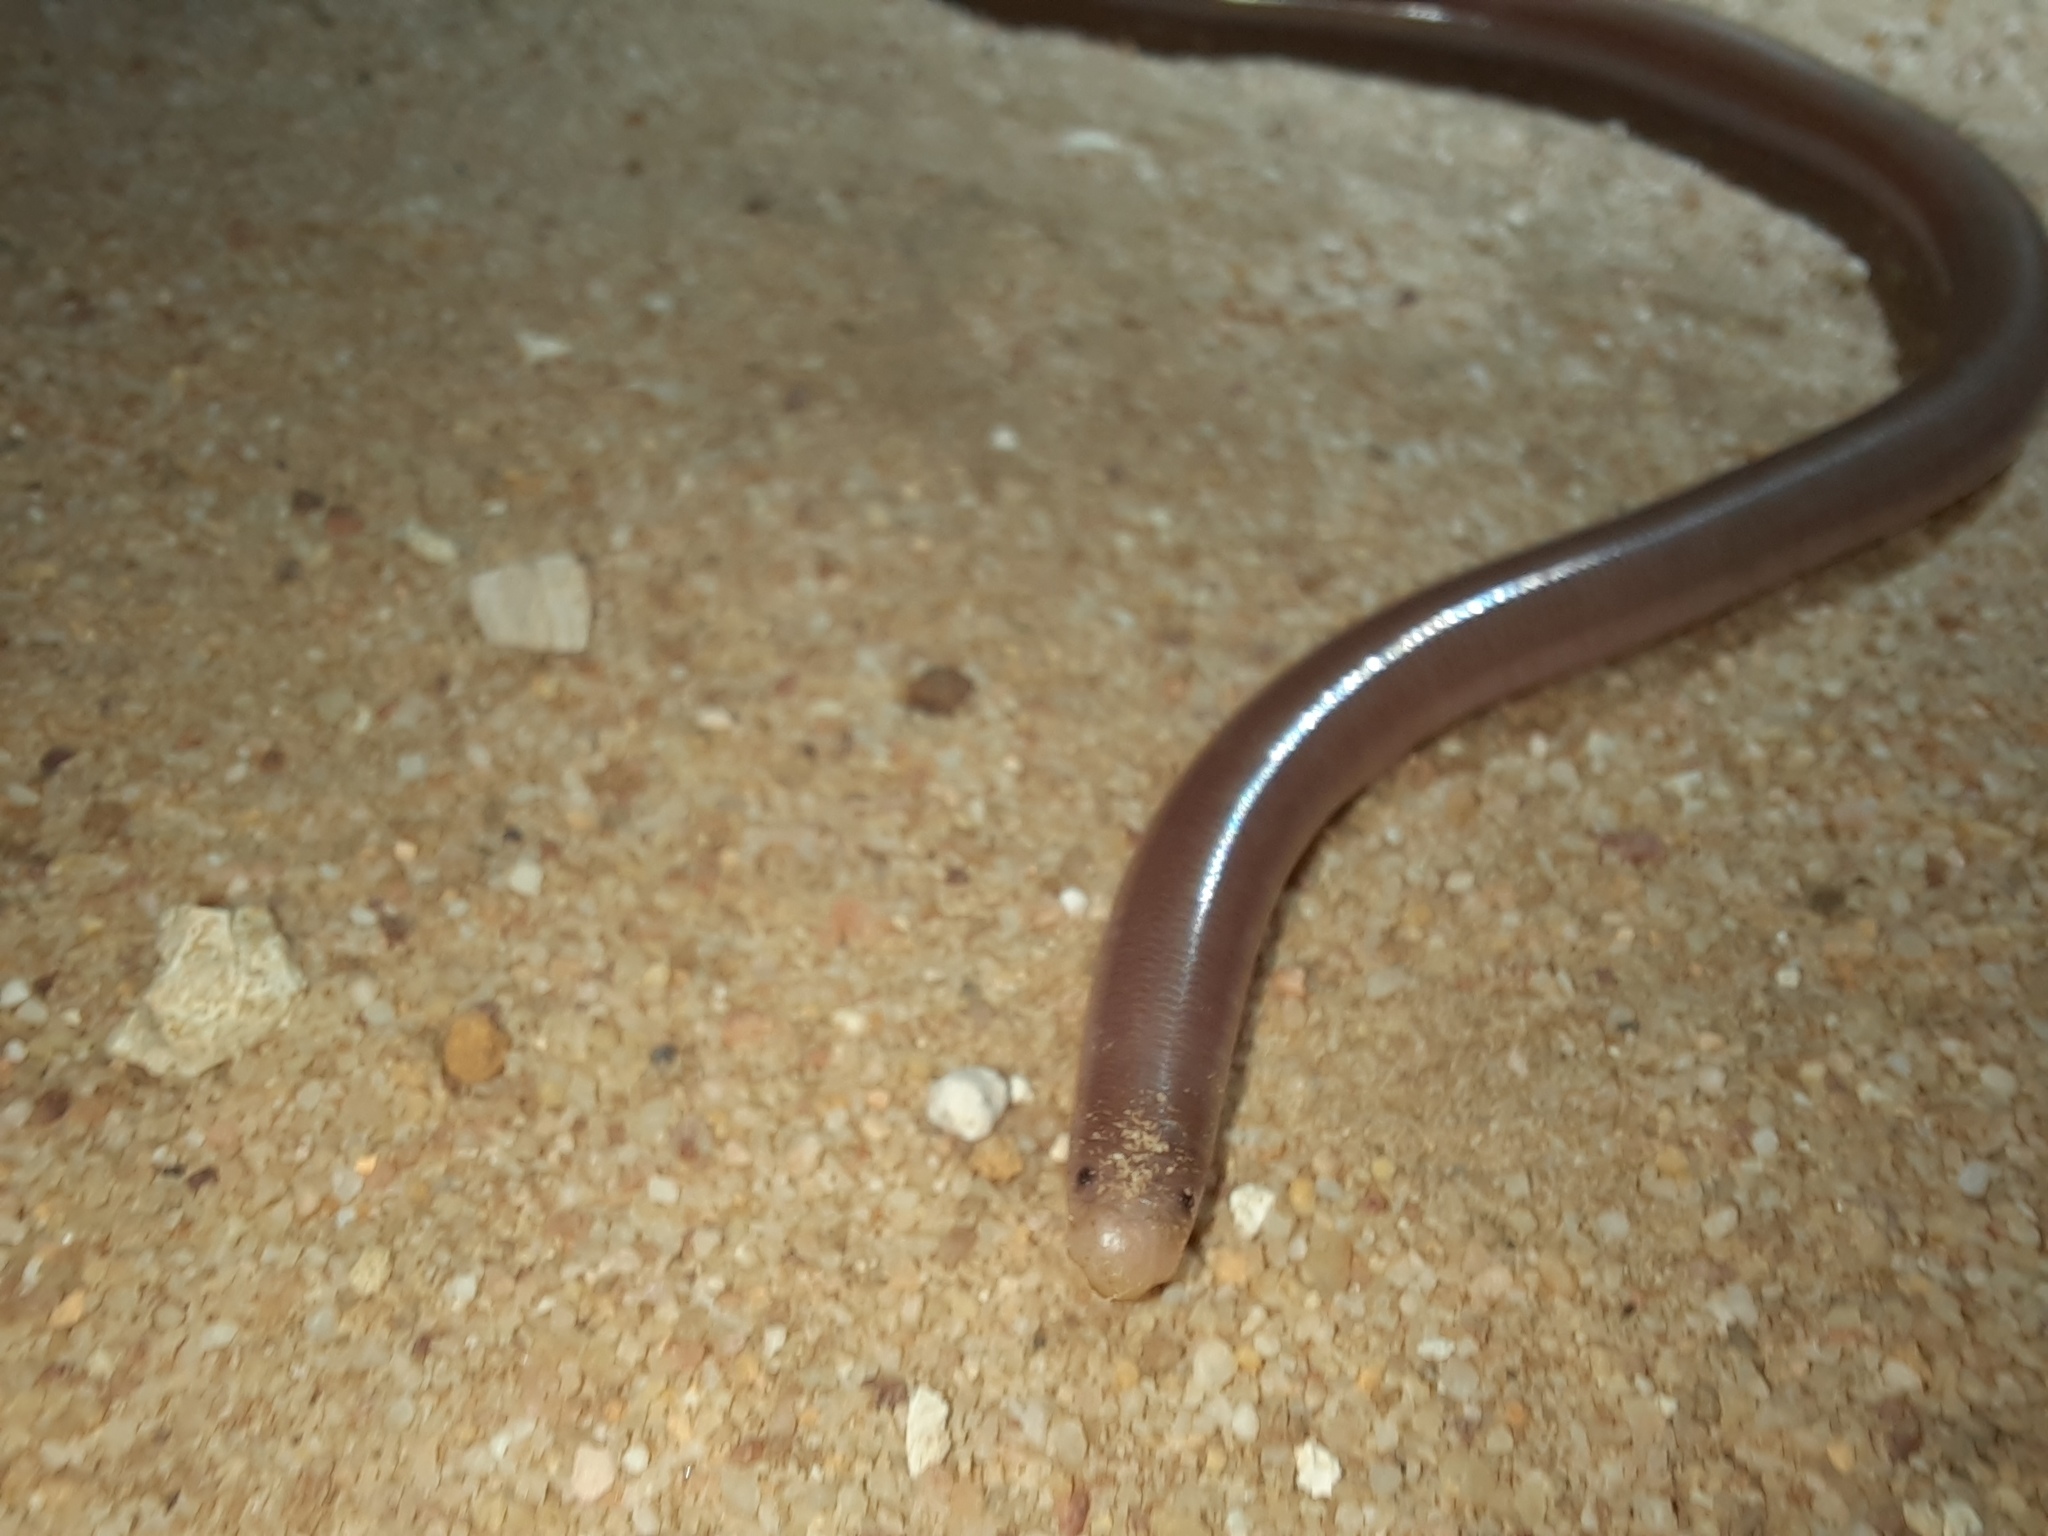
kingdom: Animalia
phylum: Chordata
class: Squamata
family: Typhlopidae
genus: Anilios
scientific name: Anilios bituberculatus
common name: Prong-snouted blind snake
